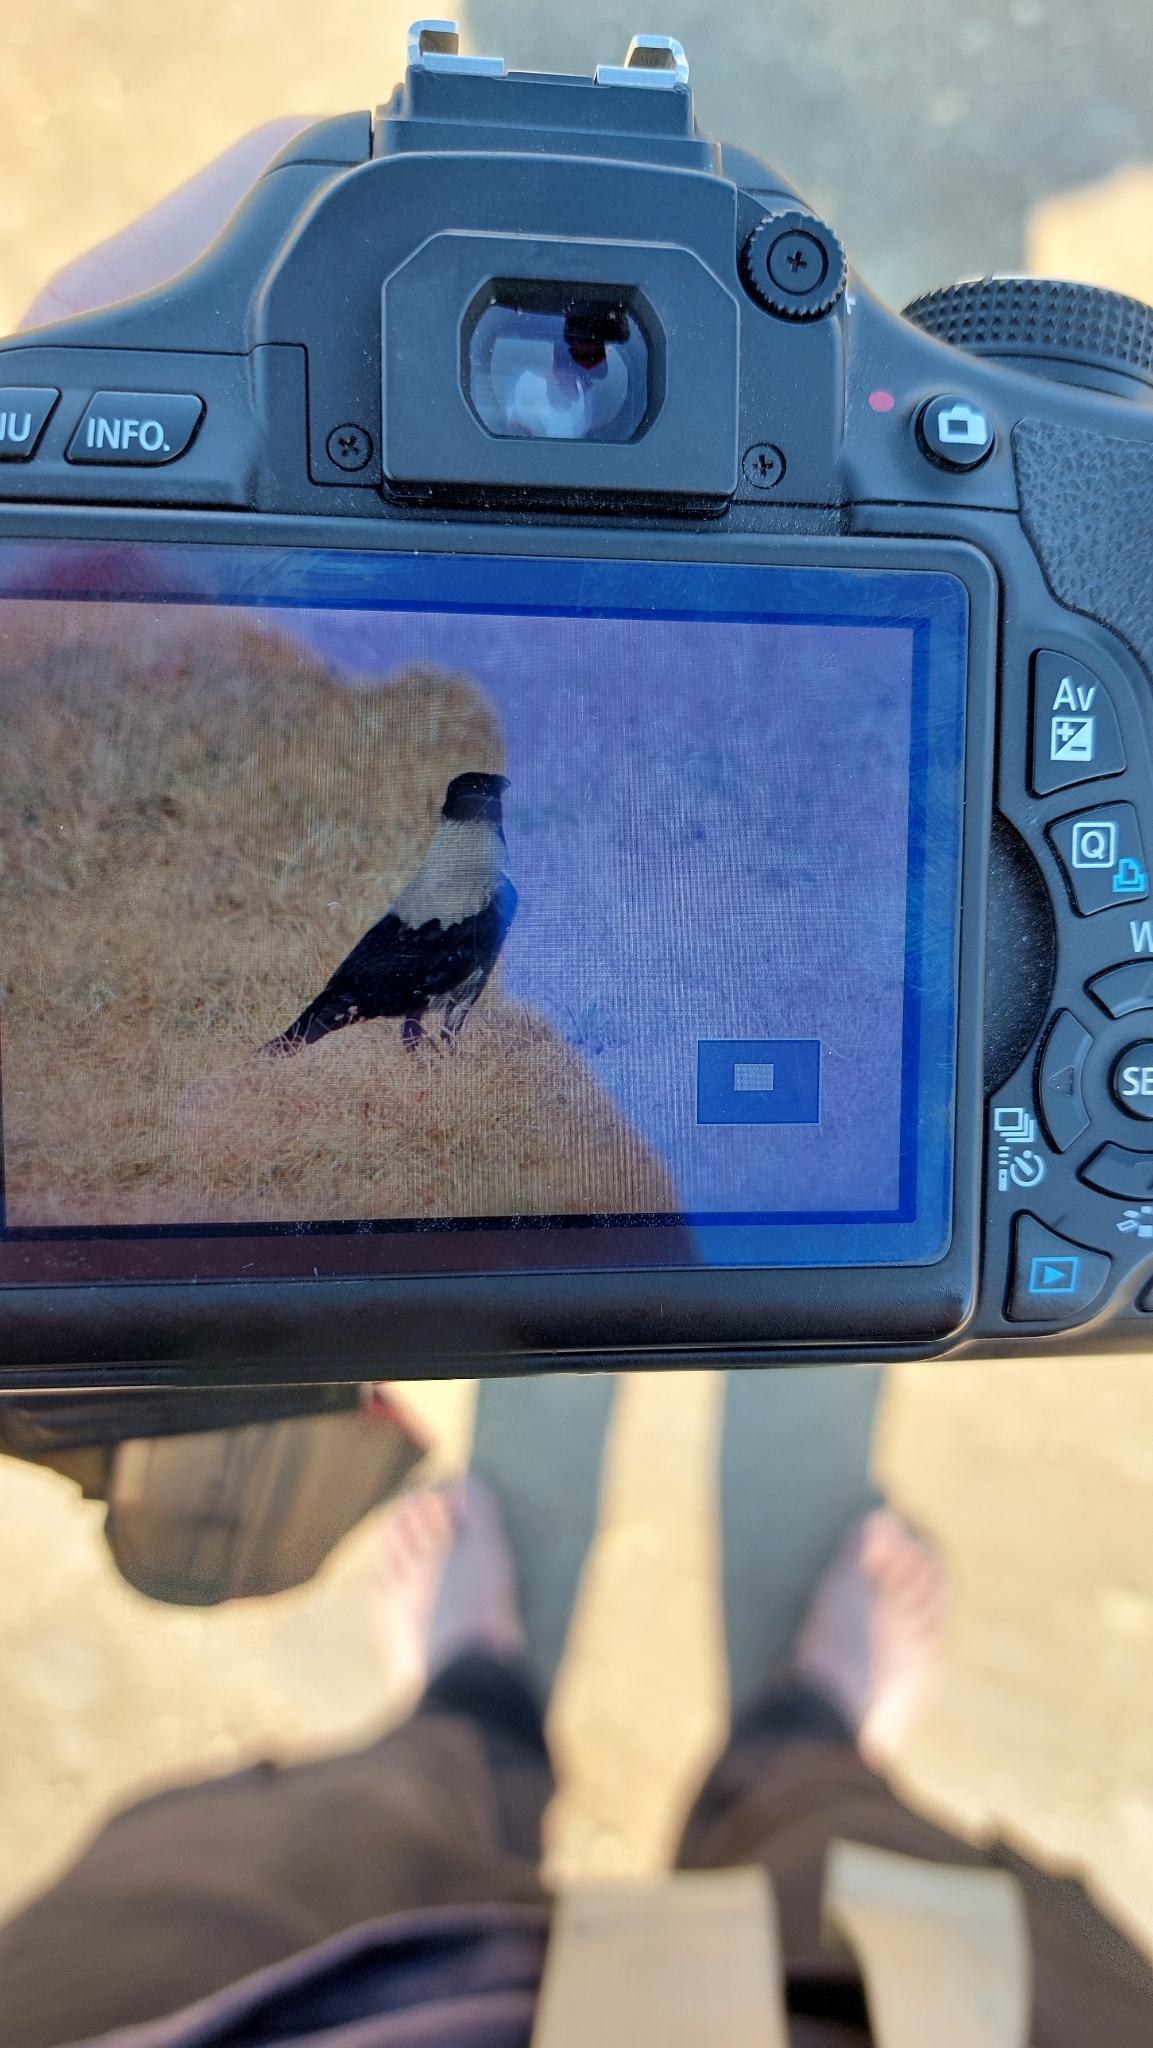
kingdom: Animalia
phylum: Chordata
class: Aves
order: Passeriformes
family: Corvidae
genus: Corvus
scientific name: Corvus cornix
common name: Hooded crow
